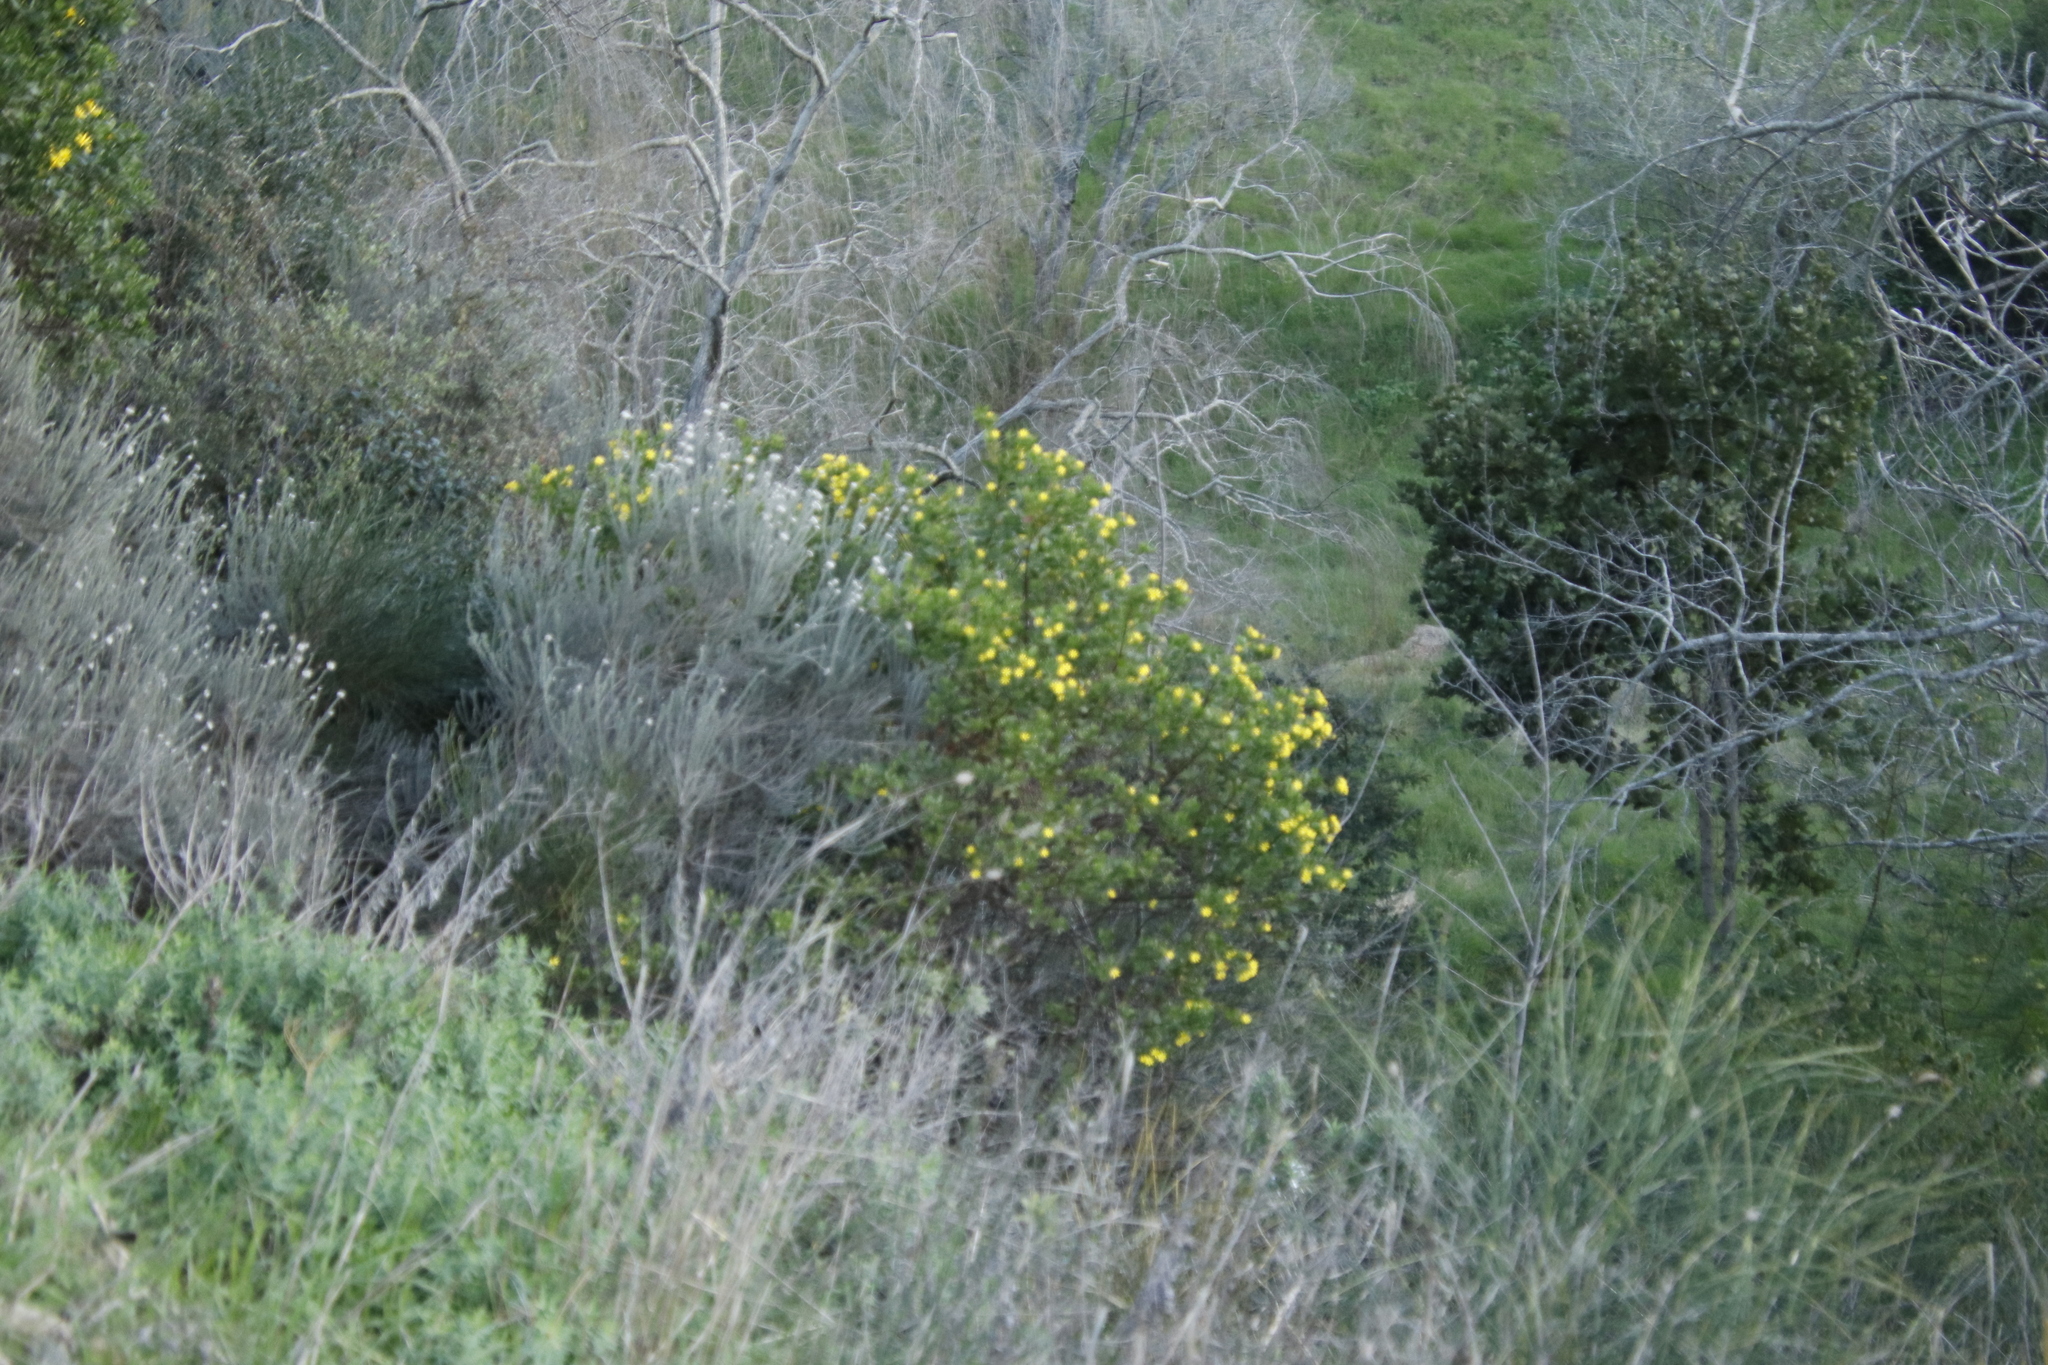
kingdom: Plantae
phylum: Tracheophyta
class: Magnoliopsida
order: Asterales
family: Asteraceae
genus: Osteospermum
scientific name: Osteospermum moniliferum
